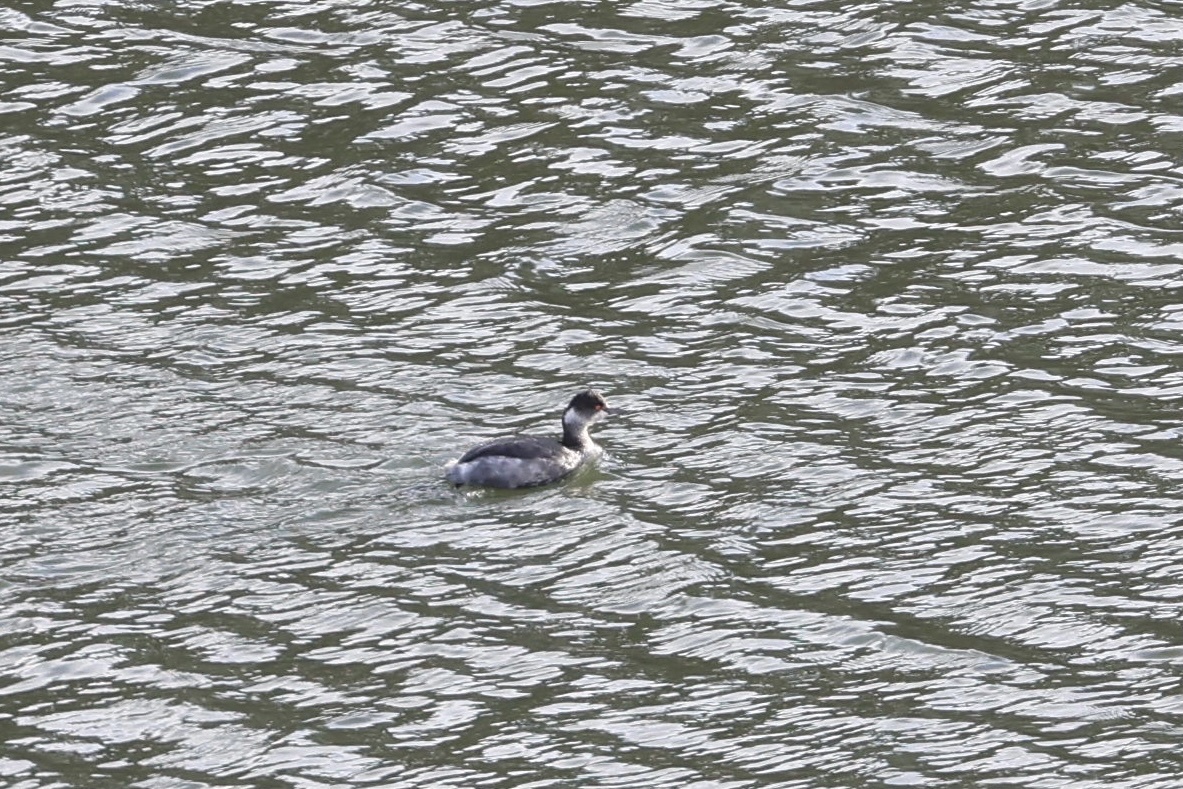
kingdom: Animalia
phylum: Chordata
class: Aves
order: Podicipediformes
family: Podicipedidae
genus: Podiceps
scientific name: Podiceps nigricollis
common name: Black-necked grebe
